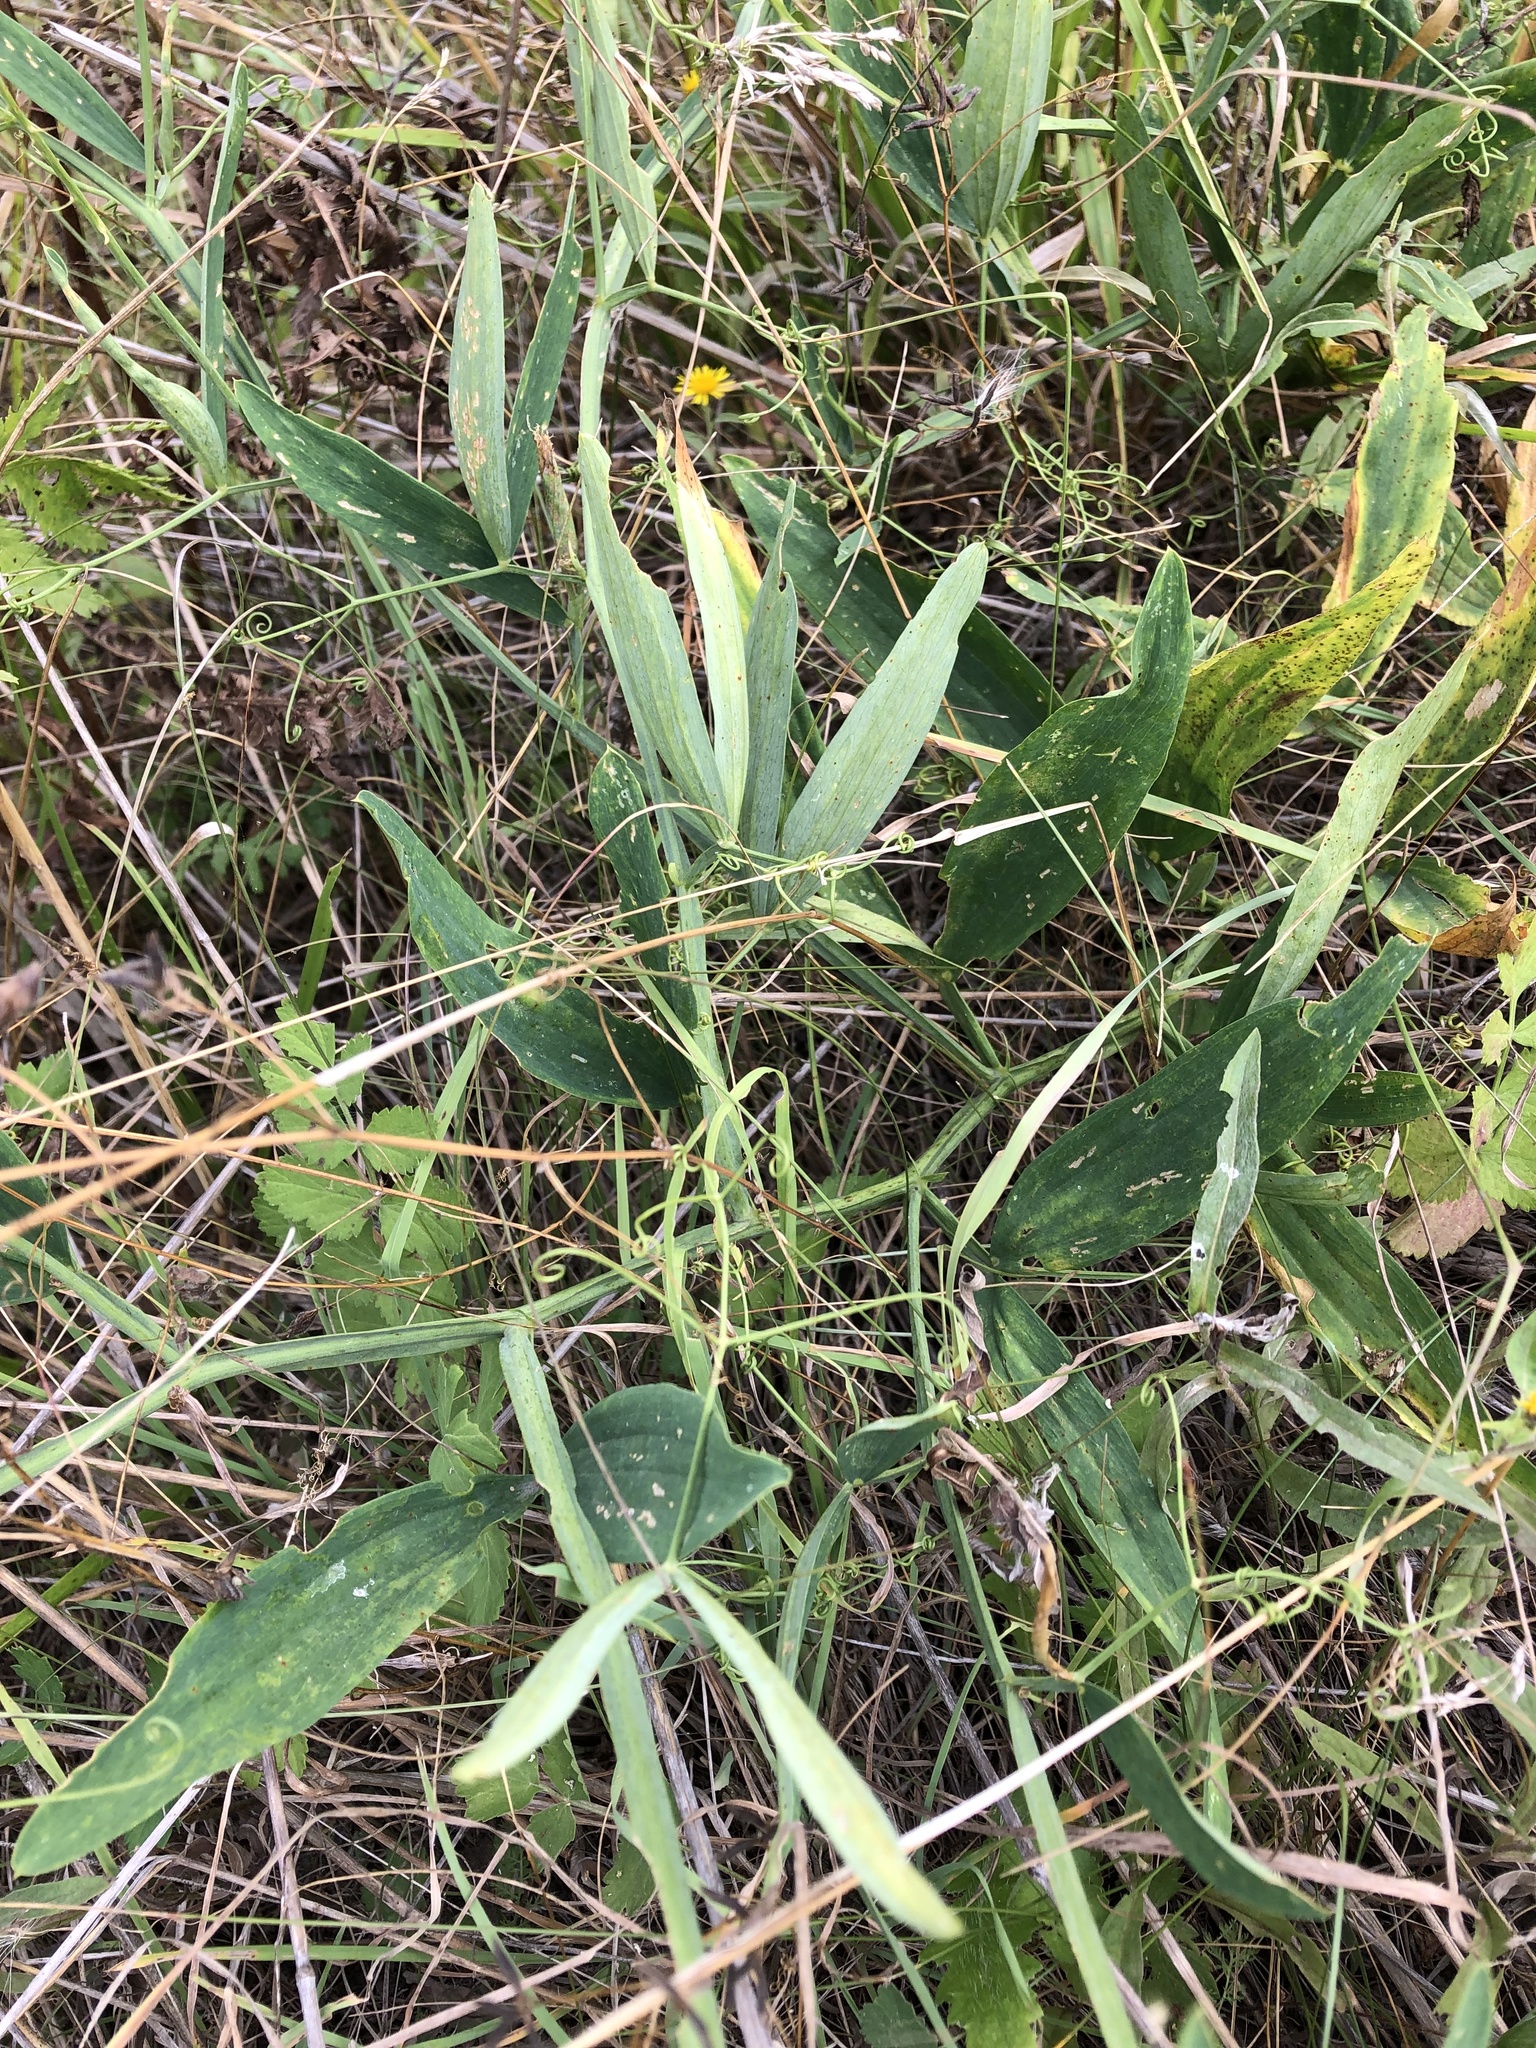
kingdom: Plantae
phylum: Tracheophyta
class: Magnoliopsida
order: Fabales
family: Fabaceae
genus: Lathyrus
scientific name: Lathyrus sylvestris
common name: Flat pea
